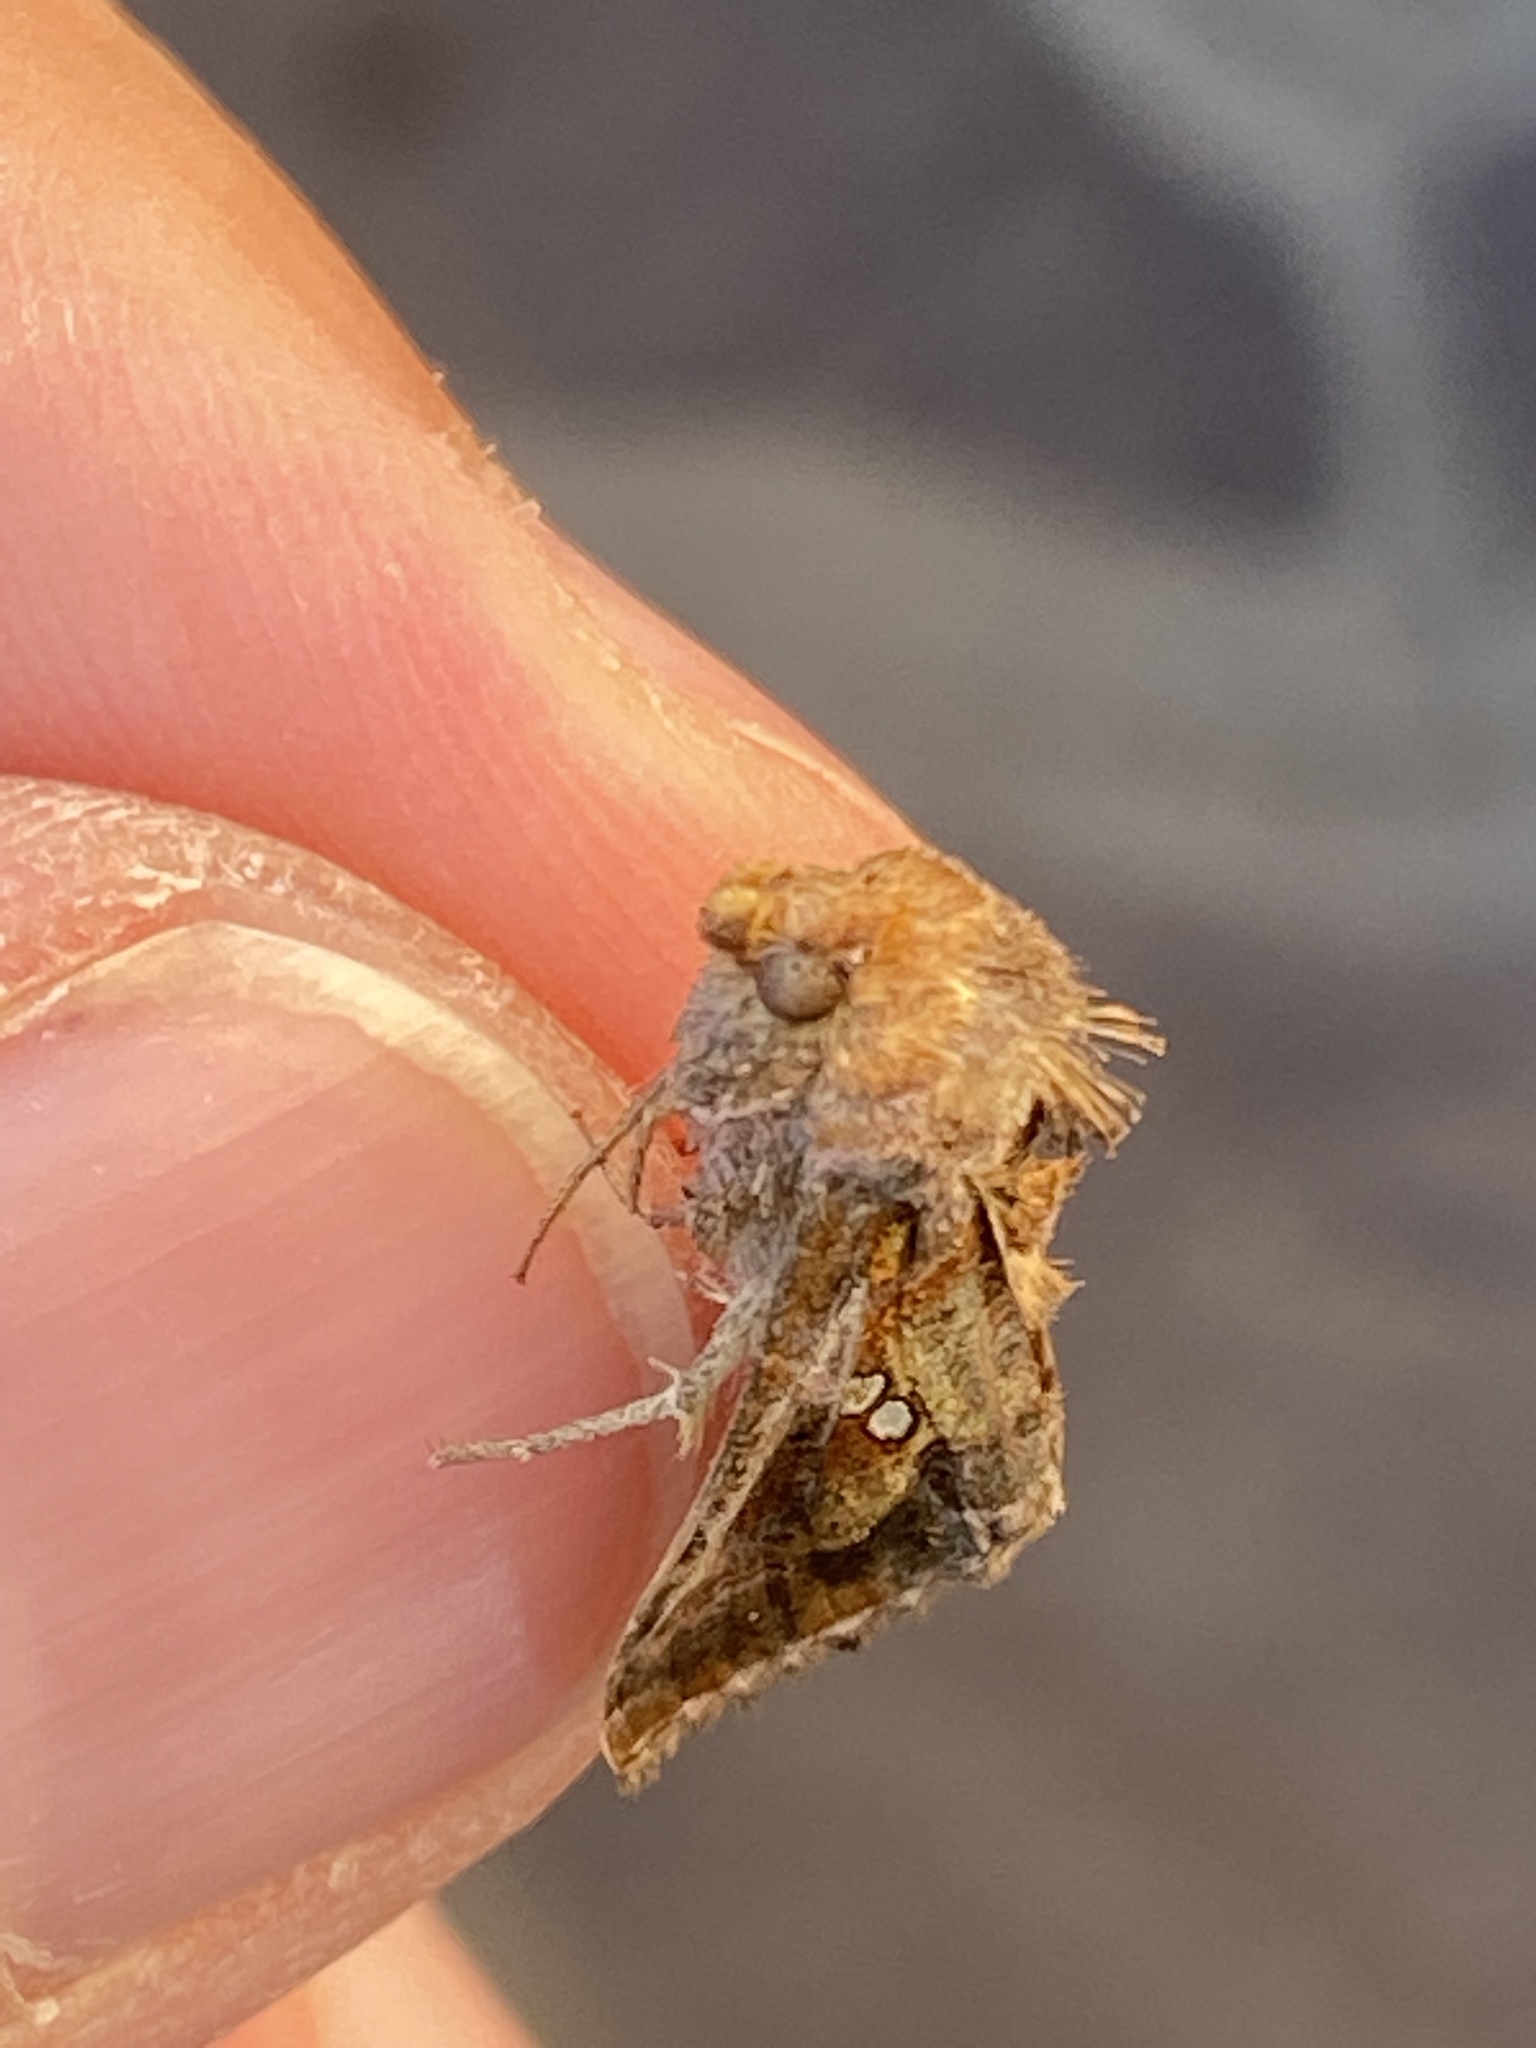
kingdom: Animalia
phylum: Arthropoda
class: Insecta
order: Lepidoptera
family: Noctuidae
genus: Chrysodeixis
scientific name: Chrysodeixis chalcites
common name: Golden twin-spot
